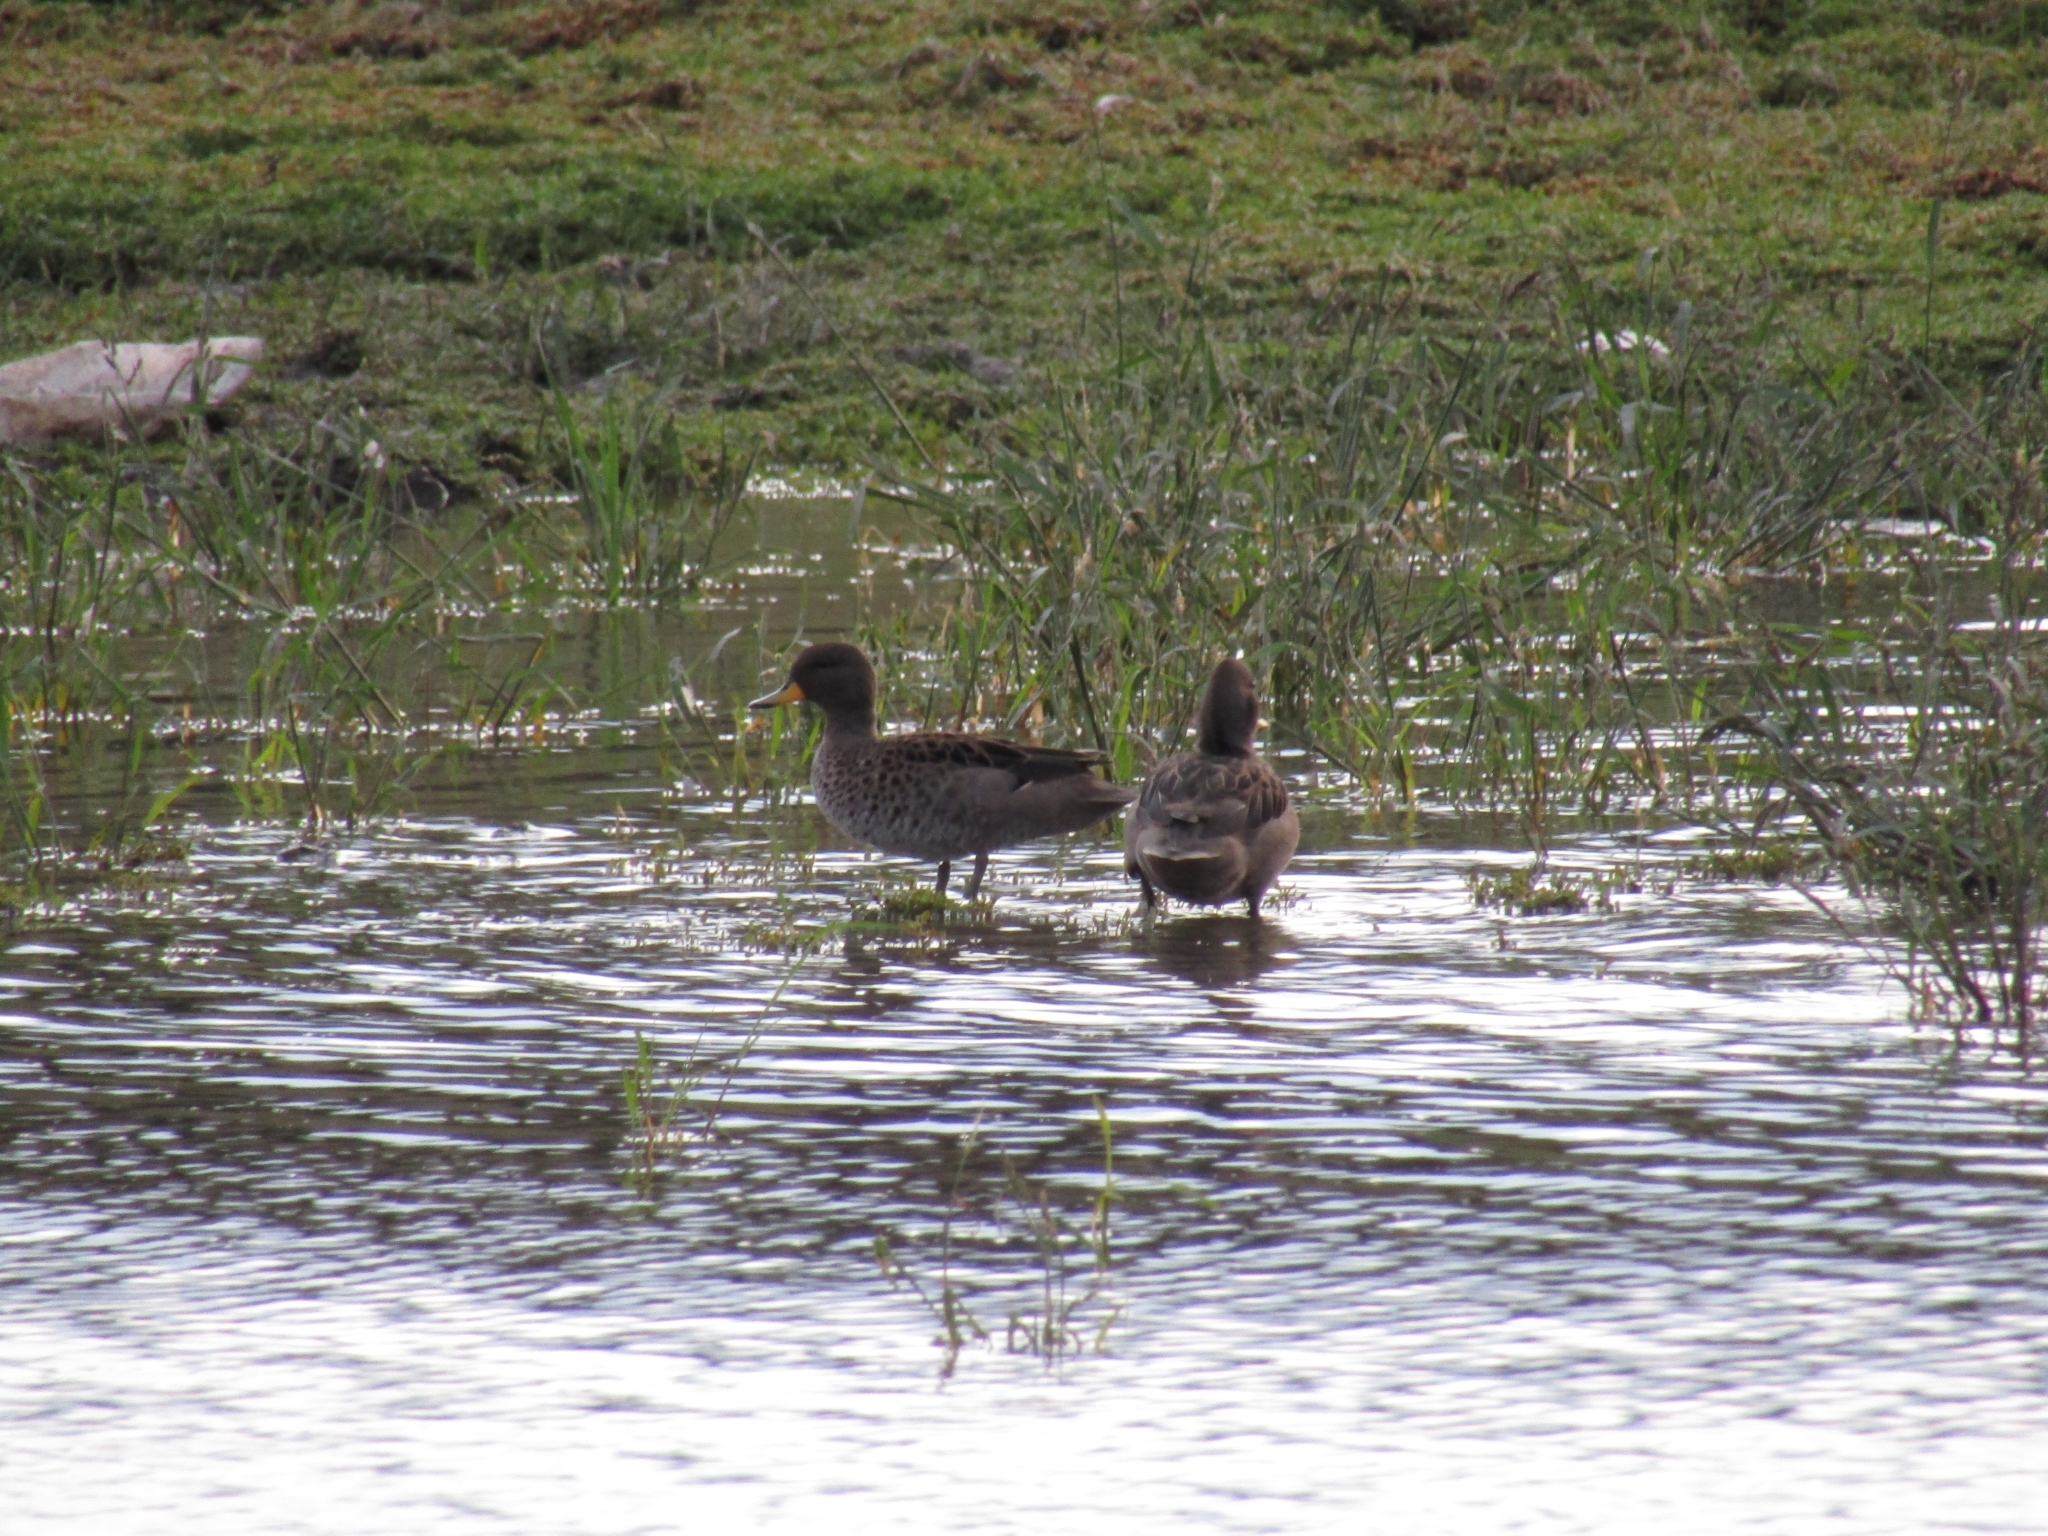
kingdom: Animalia
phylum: Chordata
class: Aves
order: Anseriformes
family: Anatidae
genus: Anas
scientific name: Anas flavirostris
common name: Yellow-billed teal
